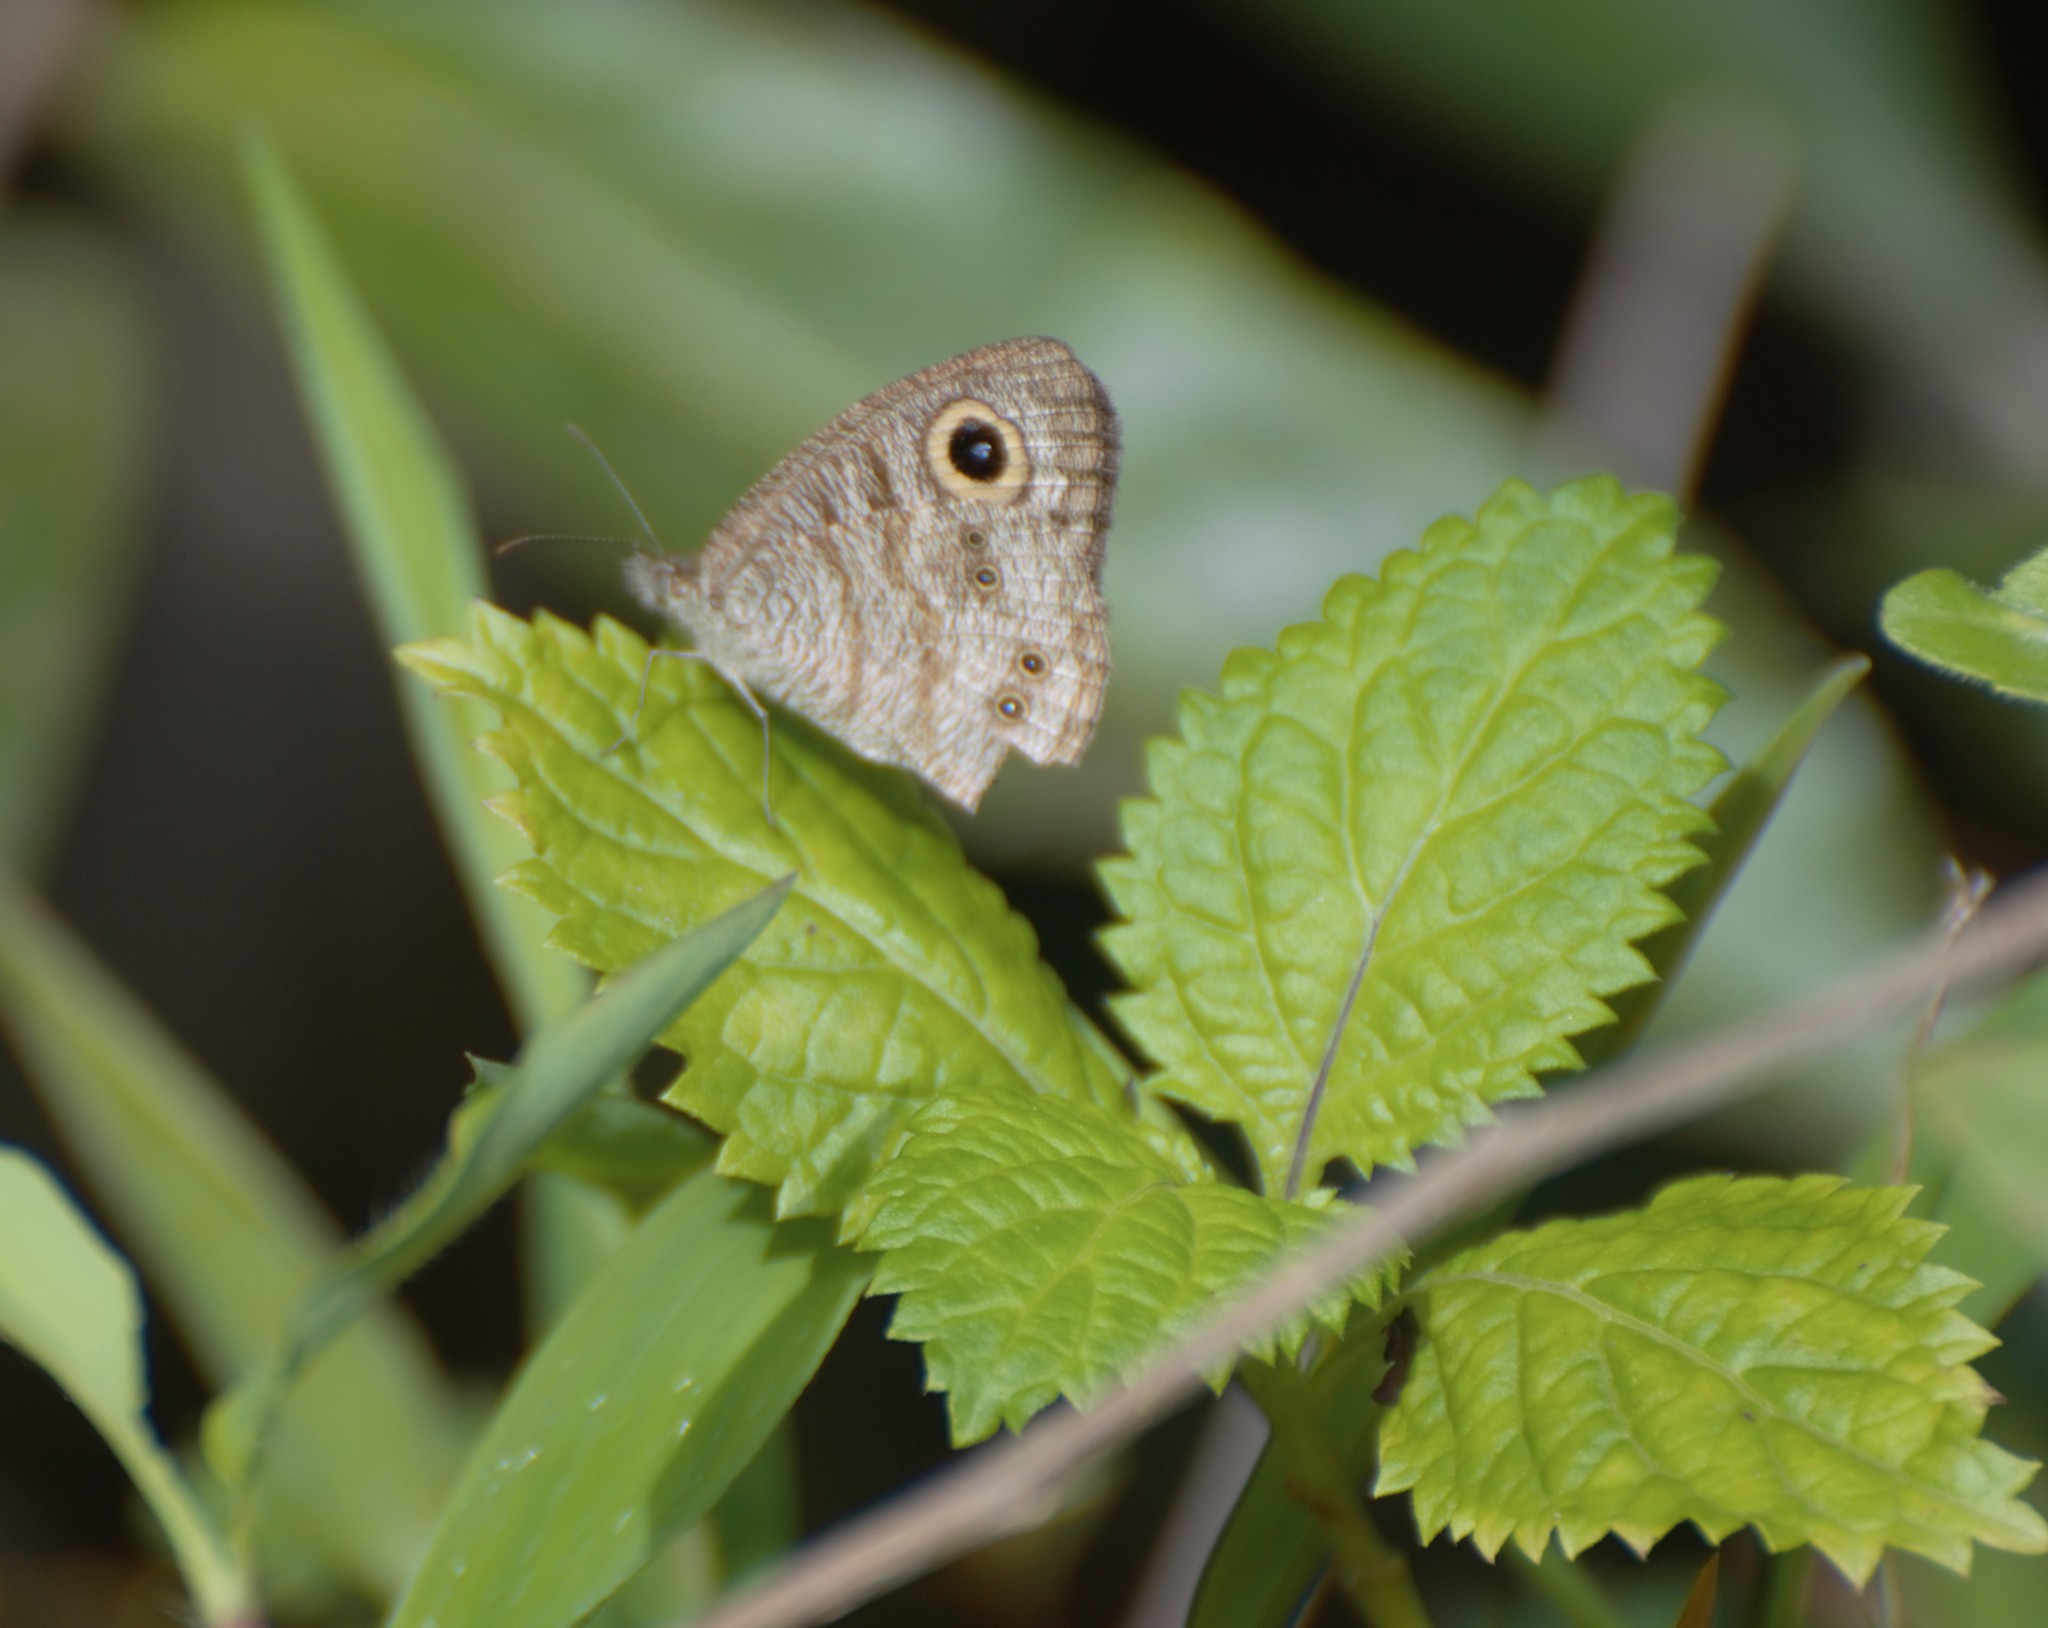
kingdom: Animalia
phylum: Arthropoda
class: Insecta
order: Lepidoptera
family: Nymphalidae
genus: Ypthima
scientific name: Ypthima baldus
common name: Common five-ring
